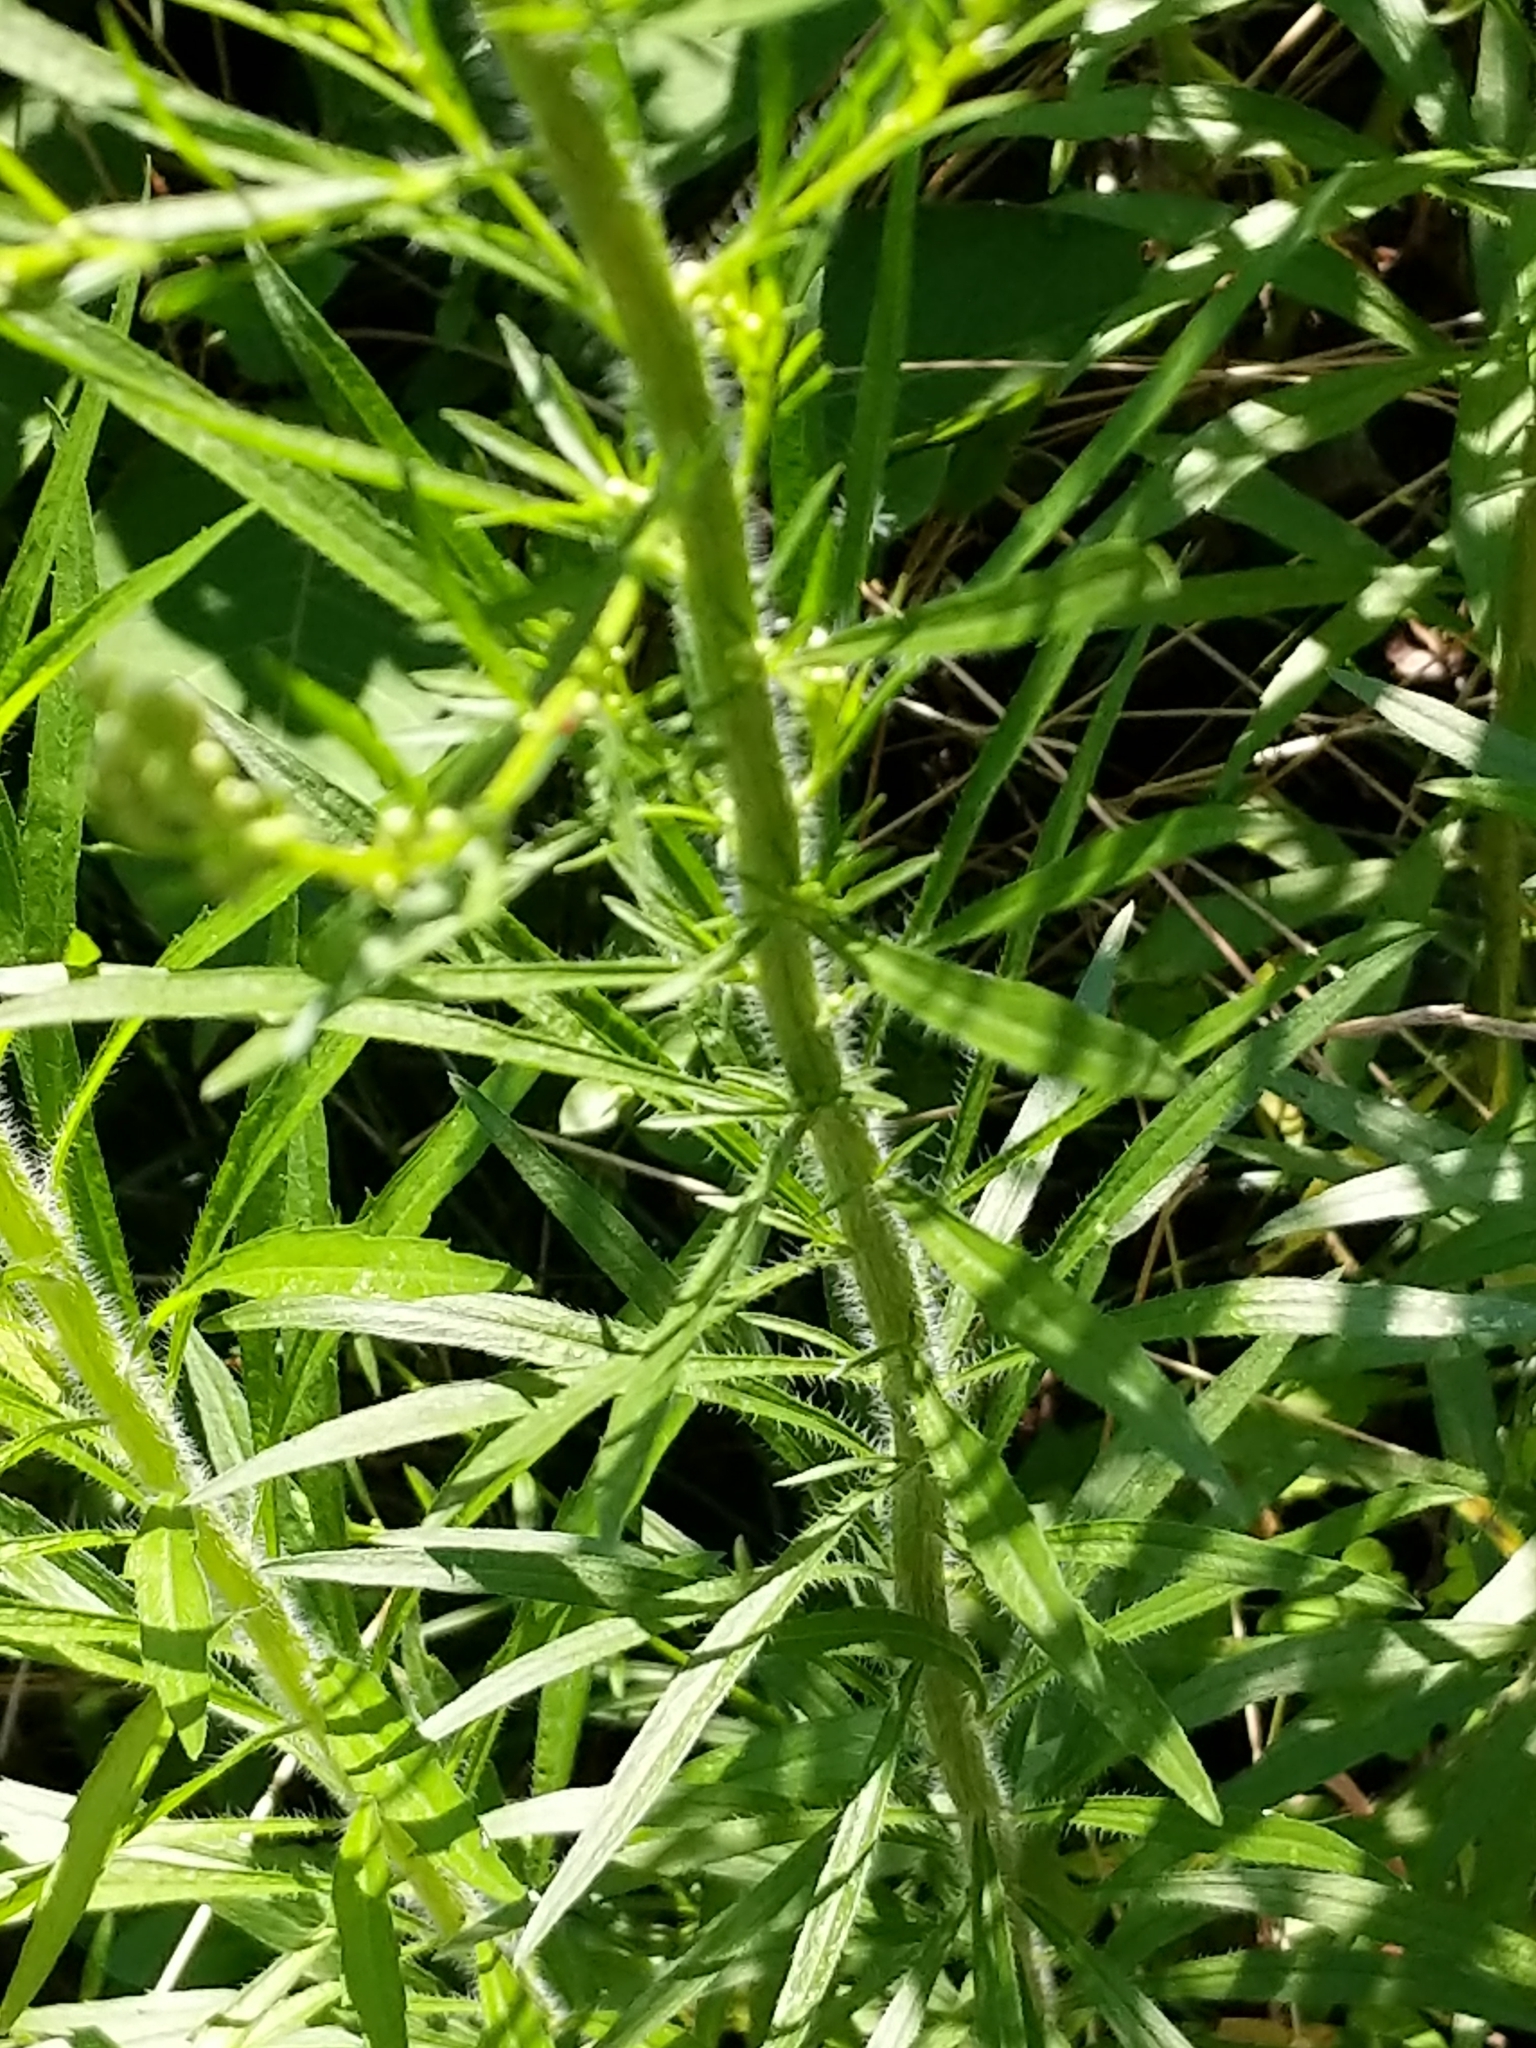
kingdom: Plantae
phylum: Tracheophyta
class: Magnoliopsida
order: Asterales
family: Asteraceae
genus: Erigeron
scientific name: Erigeron canadensis
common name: Canadian fleabane
